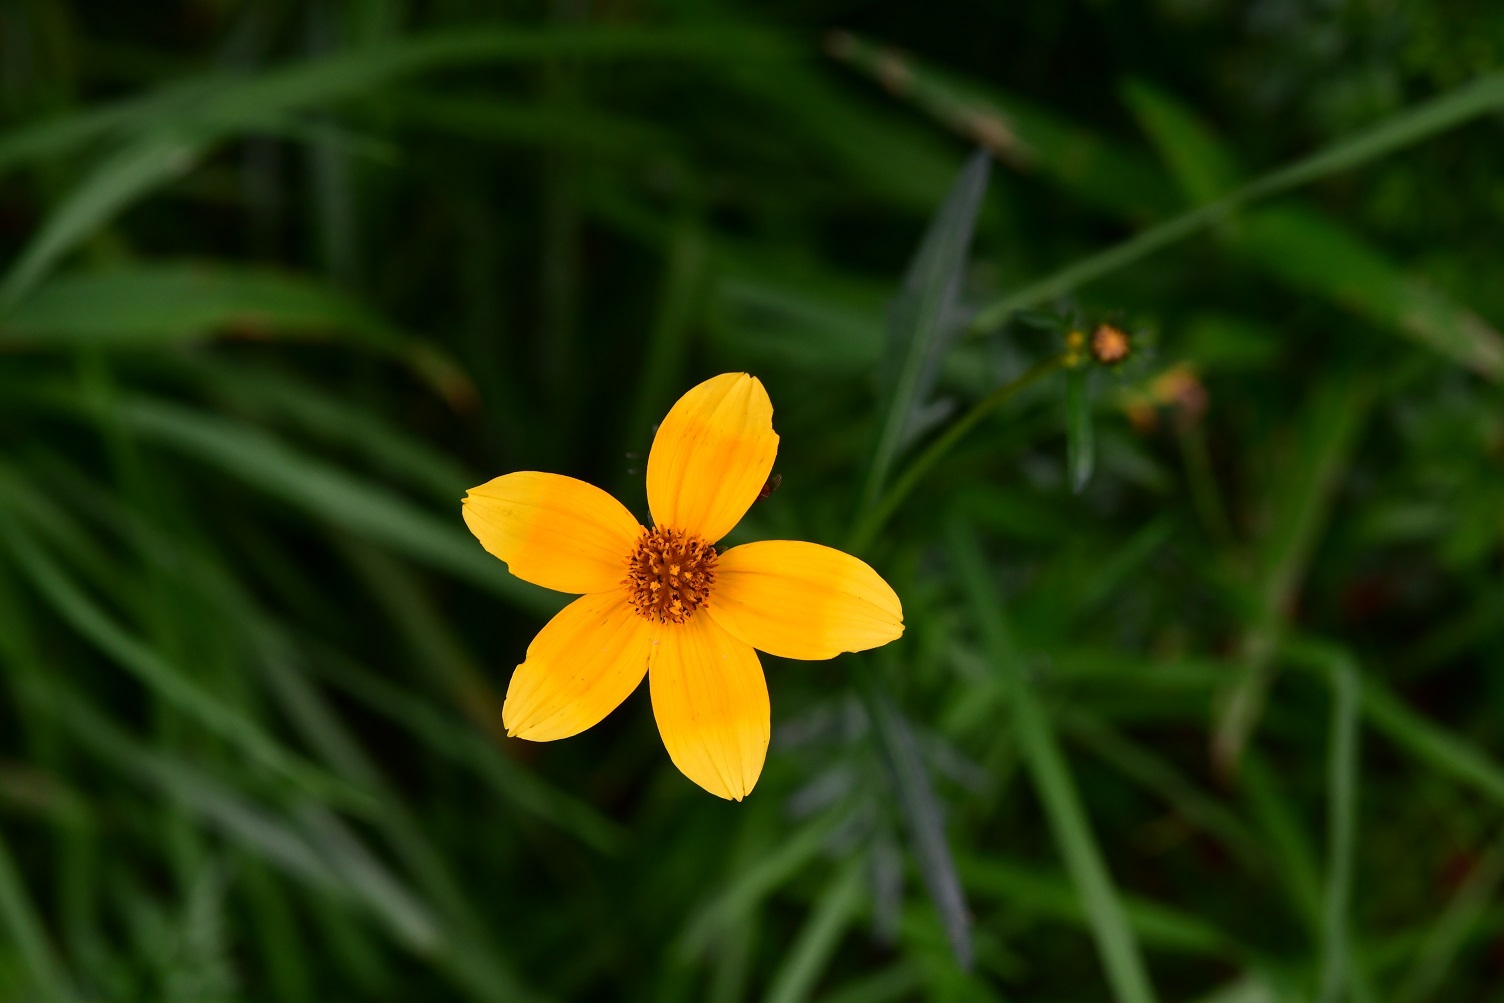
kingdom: Plantae
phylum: Tracheophyta
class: Magnoliopsida
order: Asterales
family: Asteraceae
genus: Bidens
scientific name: Bidens aurea
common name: Arizona beggar-ticks
